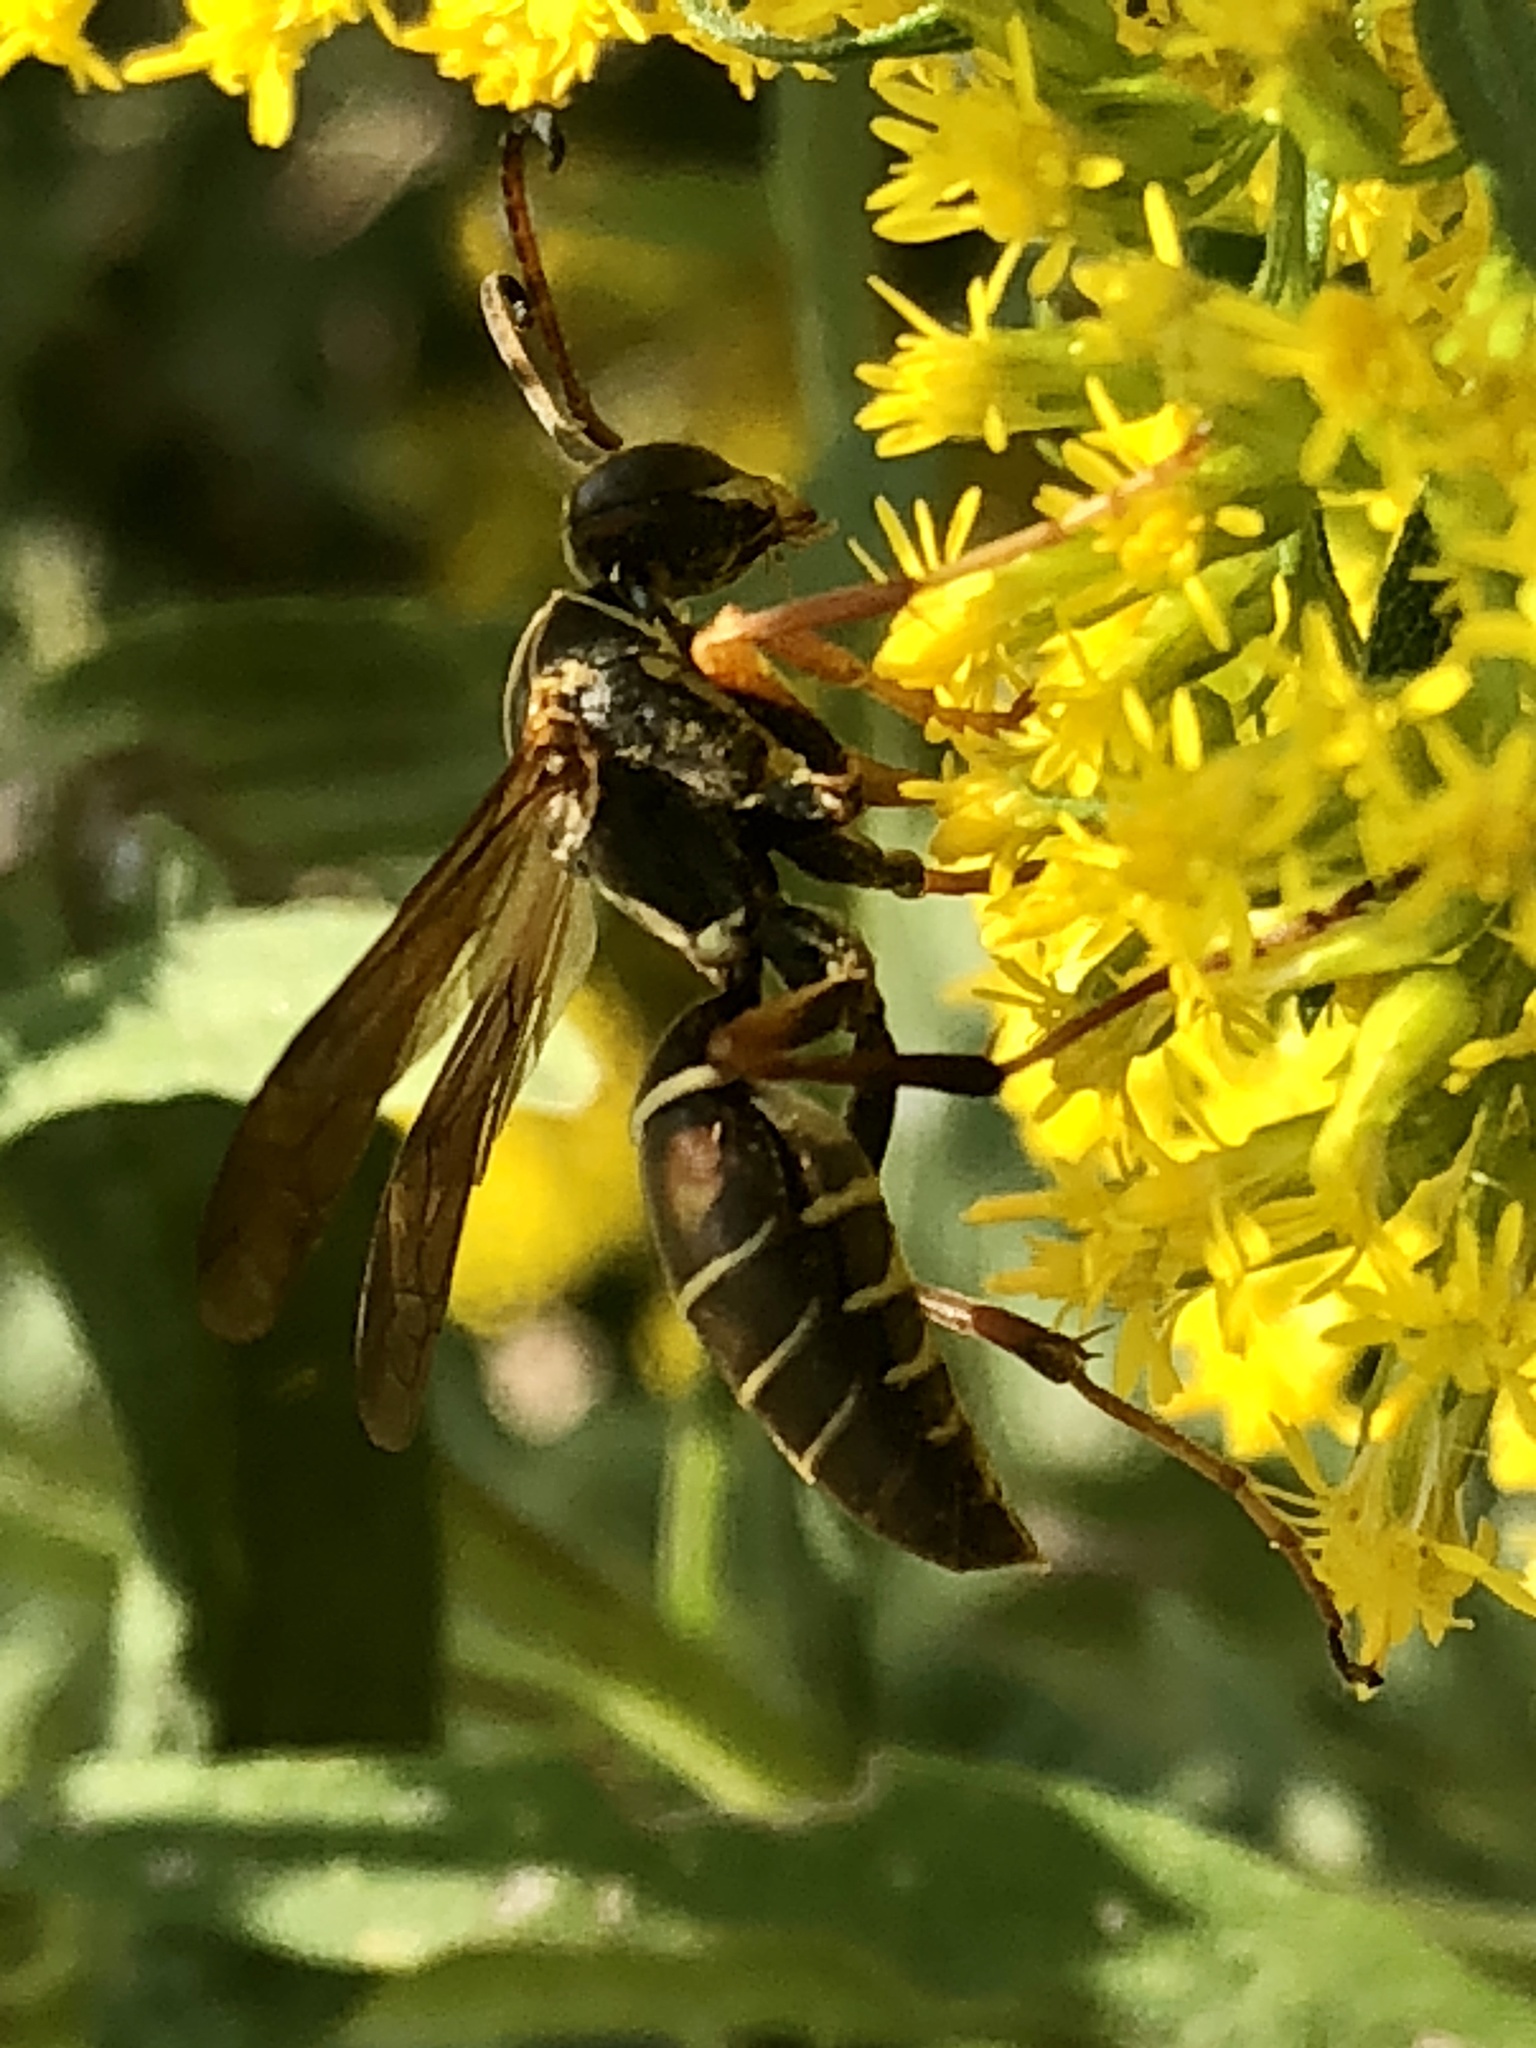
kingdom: Animalia
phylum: Arthropoda
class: Insecta
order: Hymenoptera
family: Eumenidae
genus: Polistes
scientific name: Polistes fuscatus
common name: Dark paper wasp
